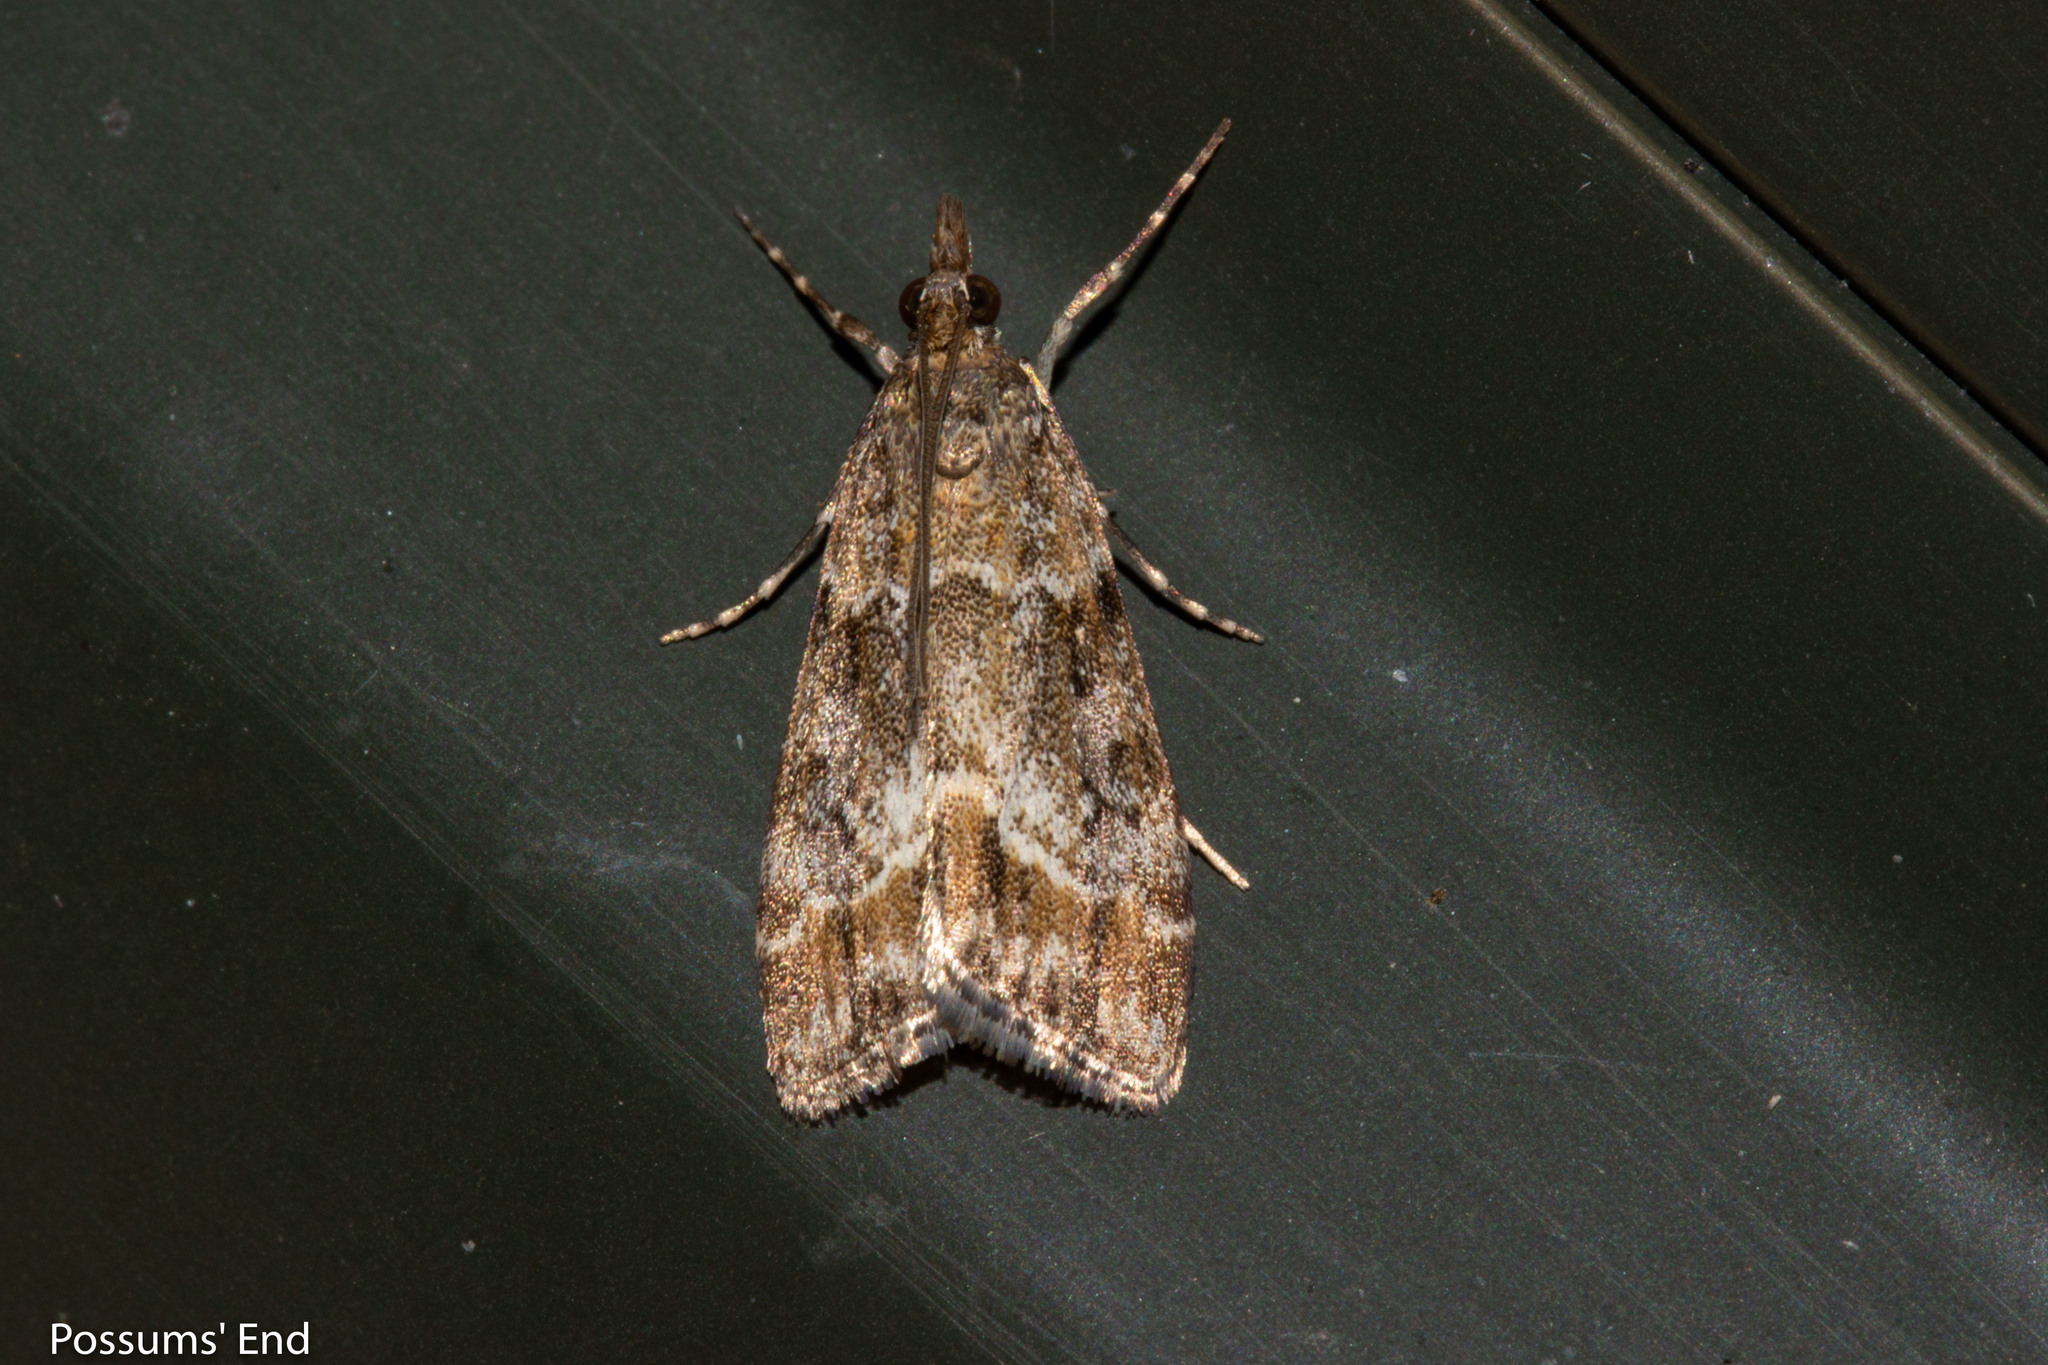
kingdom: Animalia
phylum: Arthropoda
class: Insecta
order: Lepidoptera
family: Crambidae
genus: Eudonia
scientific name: Eudonia legnota
